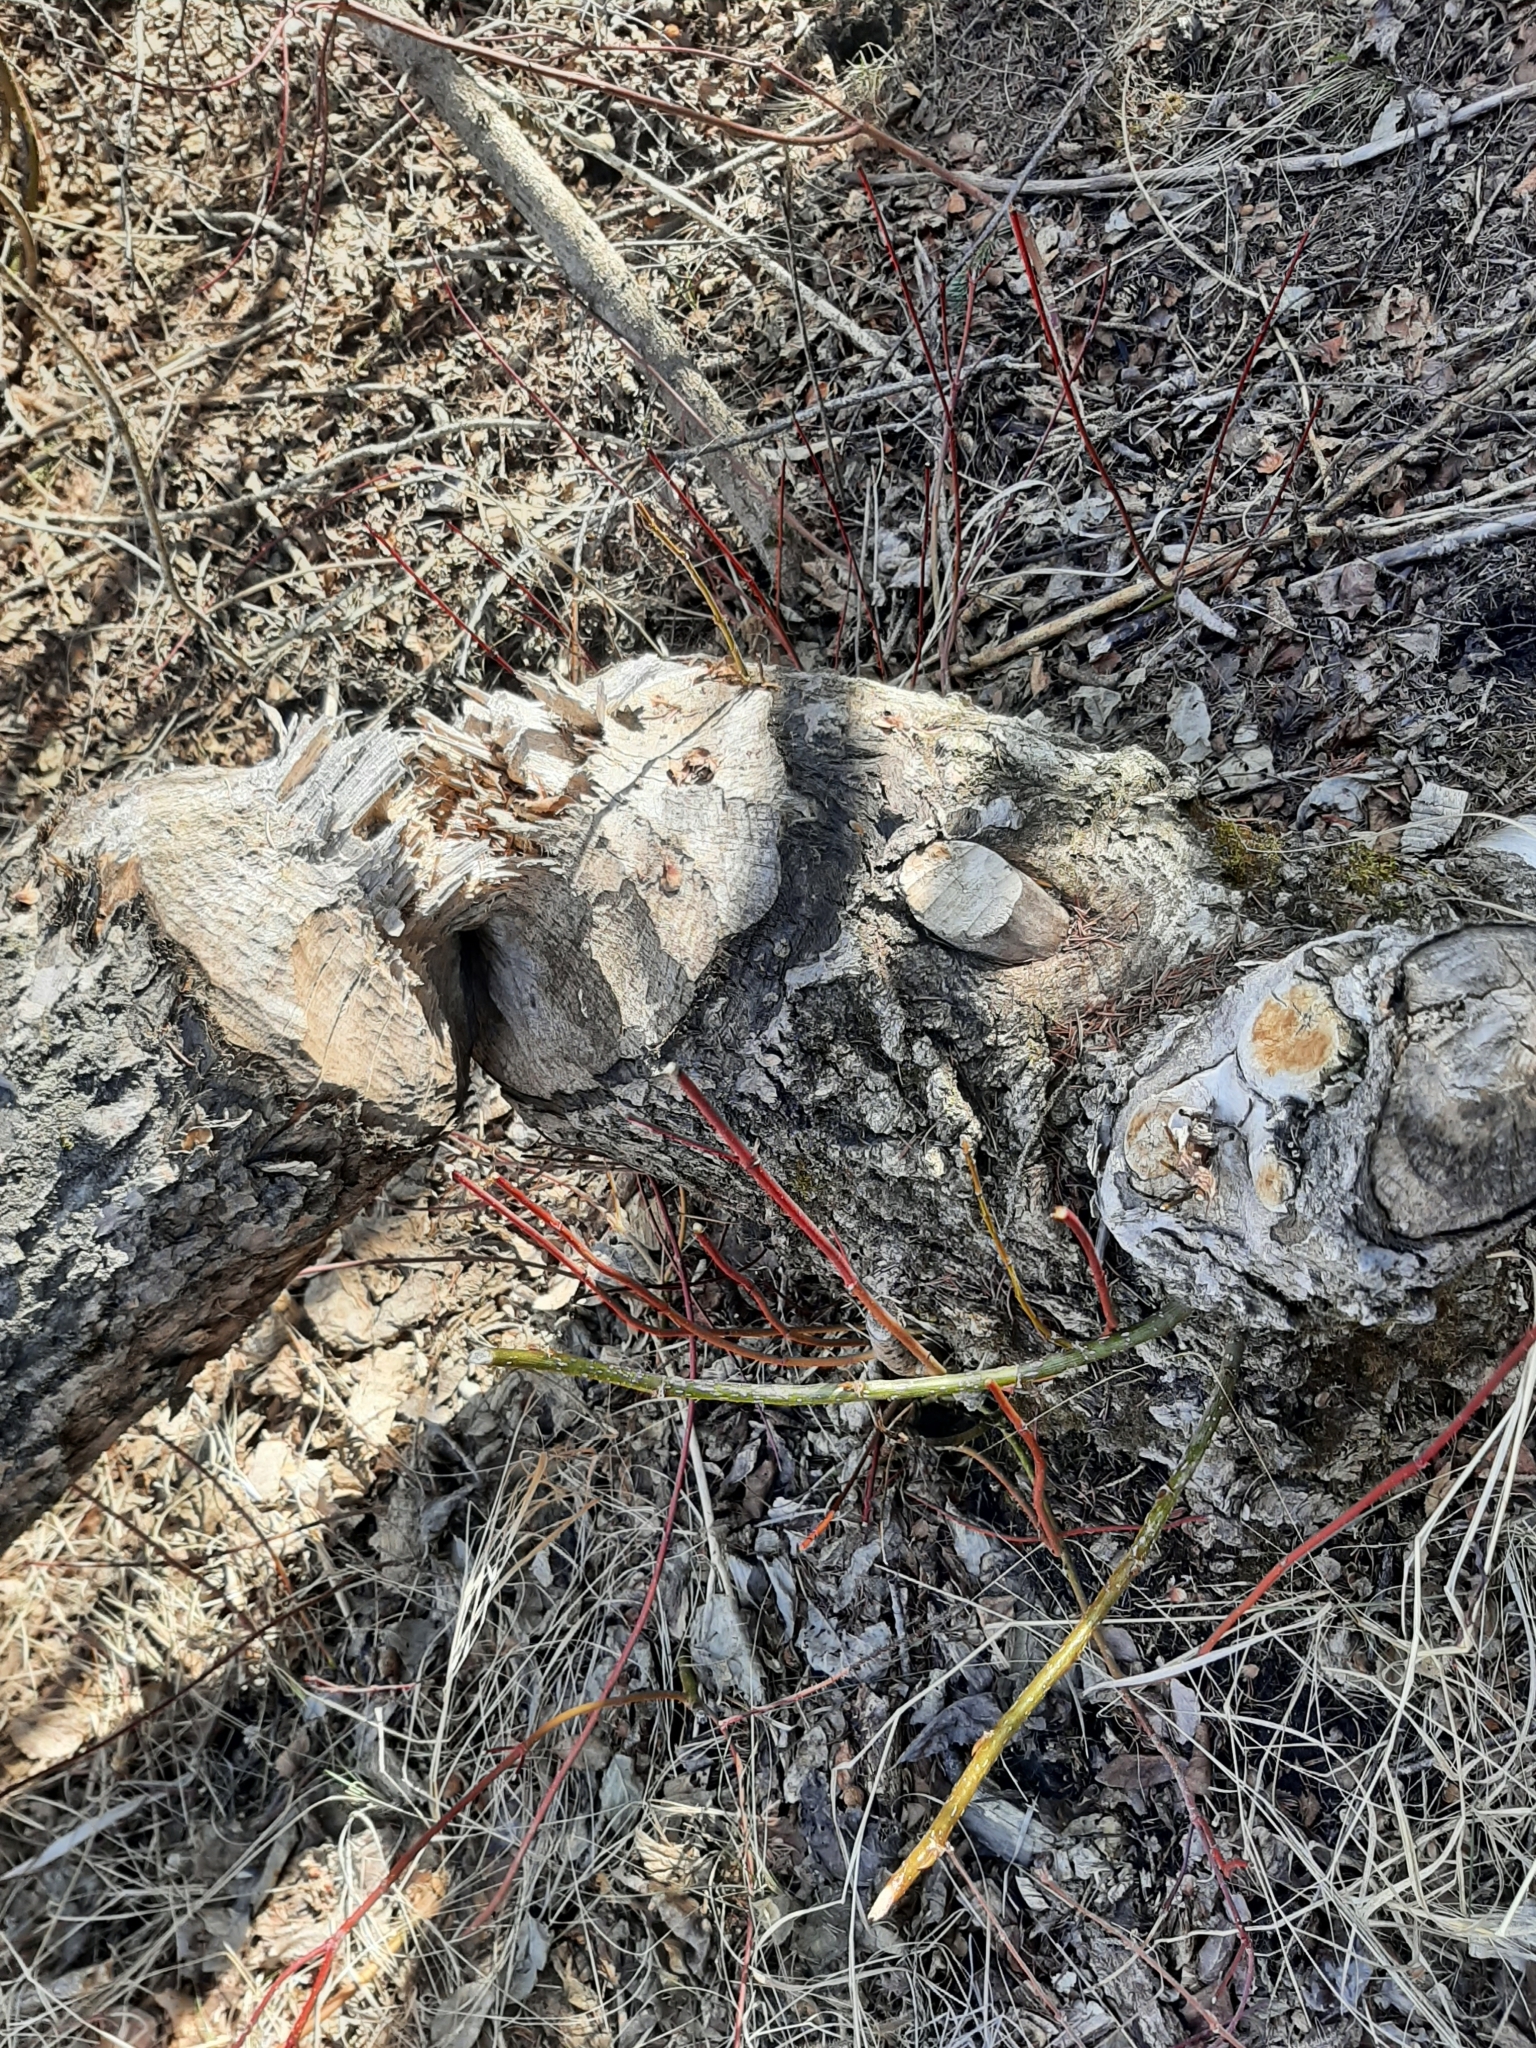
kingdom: Animalia
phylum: Chordata
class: Mammalia
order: Rodentia
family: Castoridae
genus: Castor
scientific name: Castor canadensis
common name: American beaver
